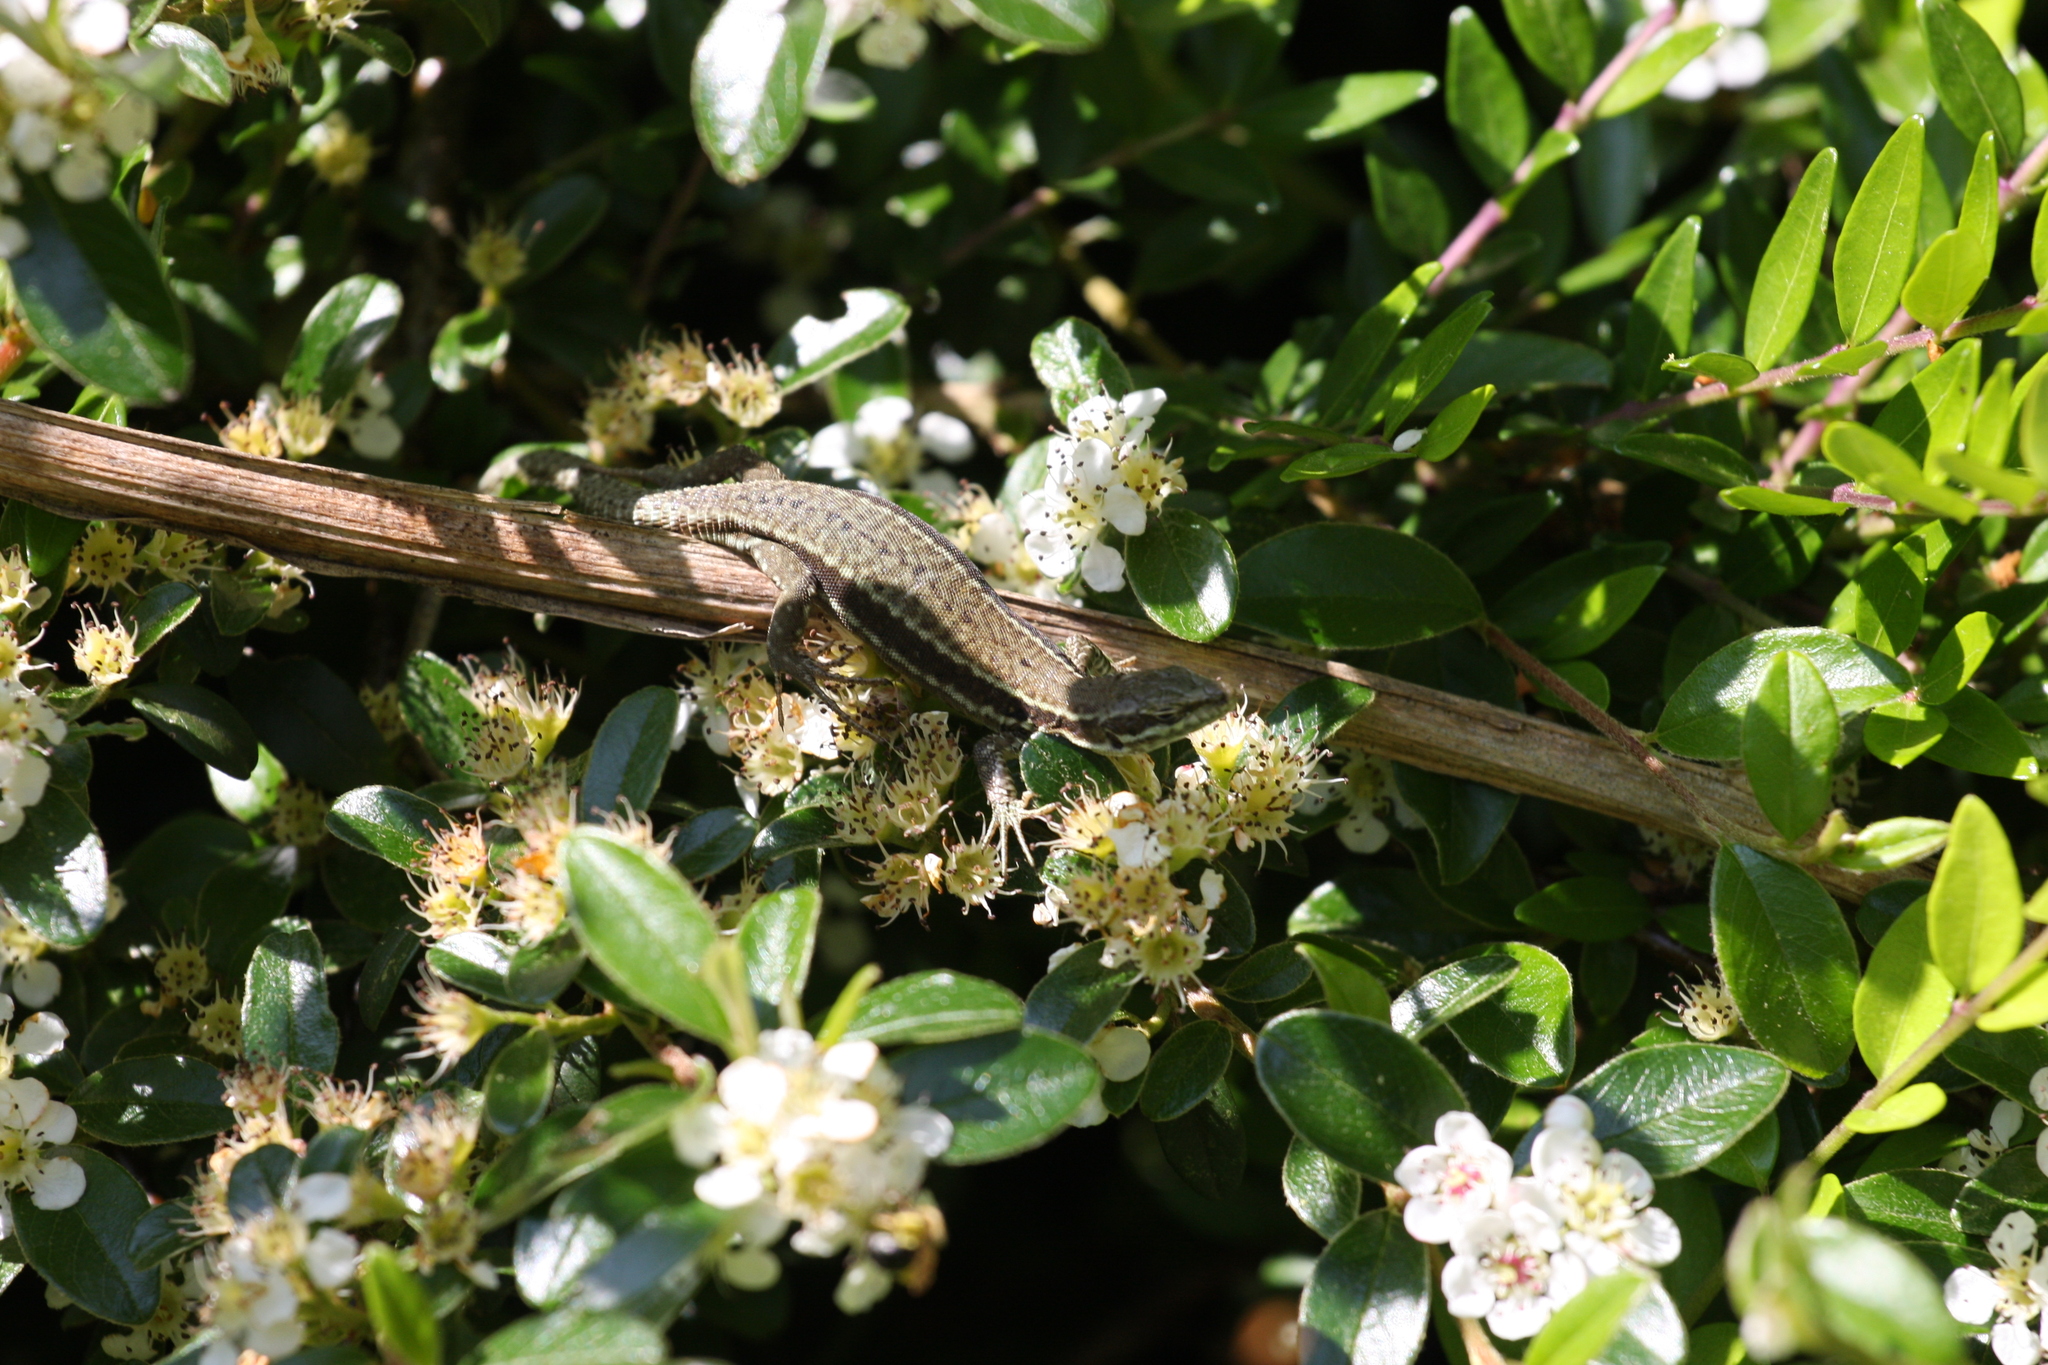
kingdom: Animalia
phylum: Chordata
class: Squamata
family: Lacertidae
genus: Podarcis
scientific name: Podarcis muralis
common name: Common wall lizard
